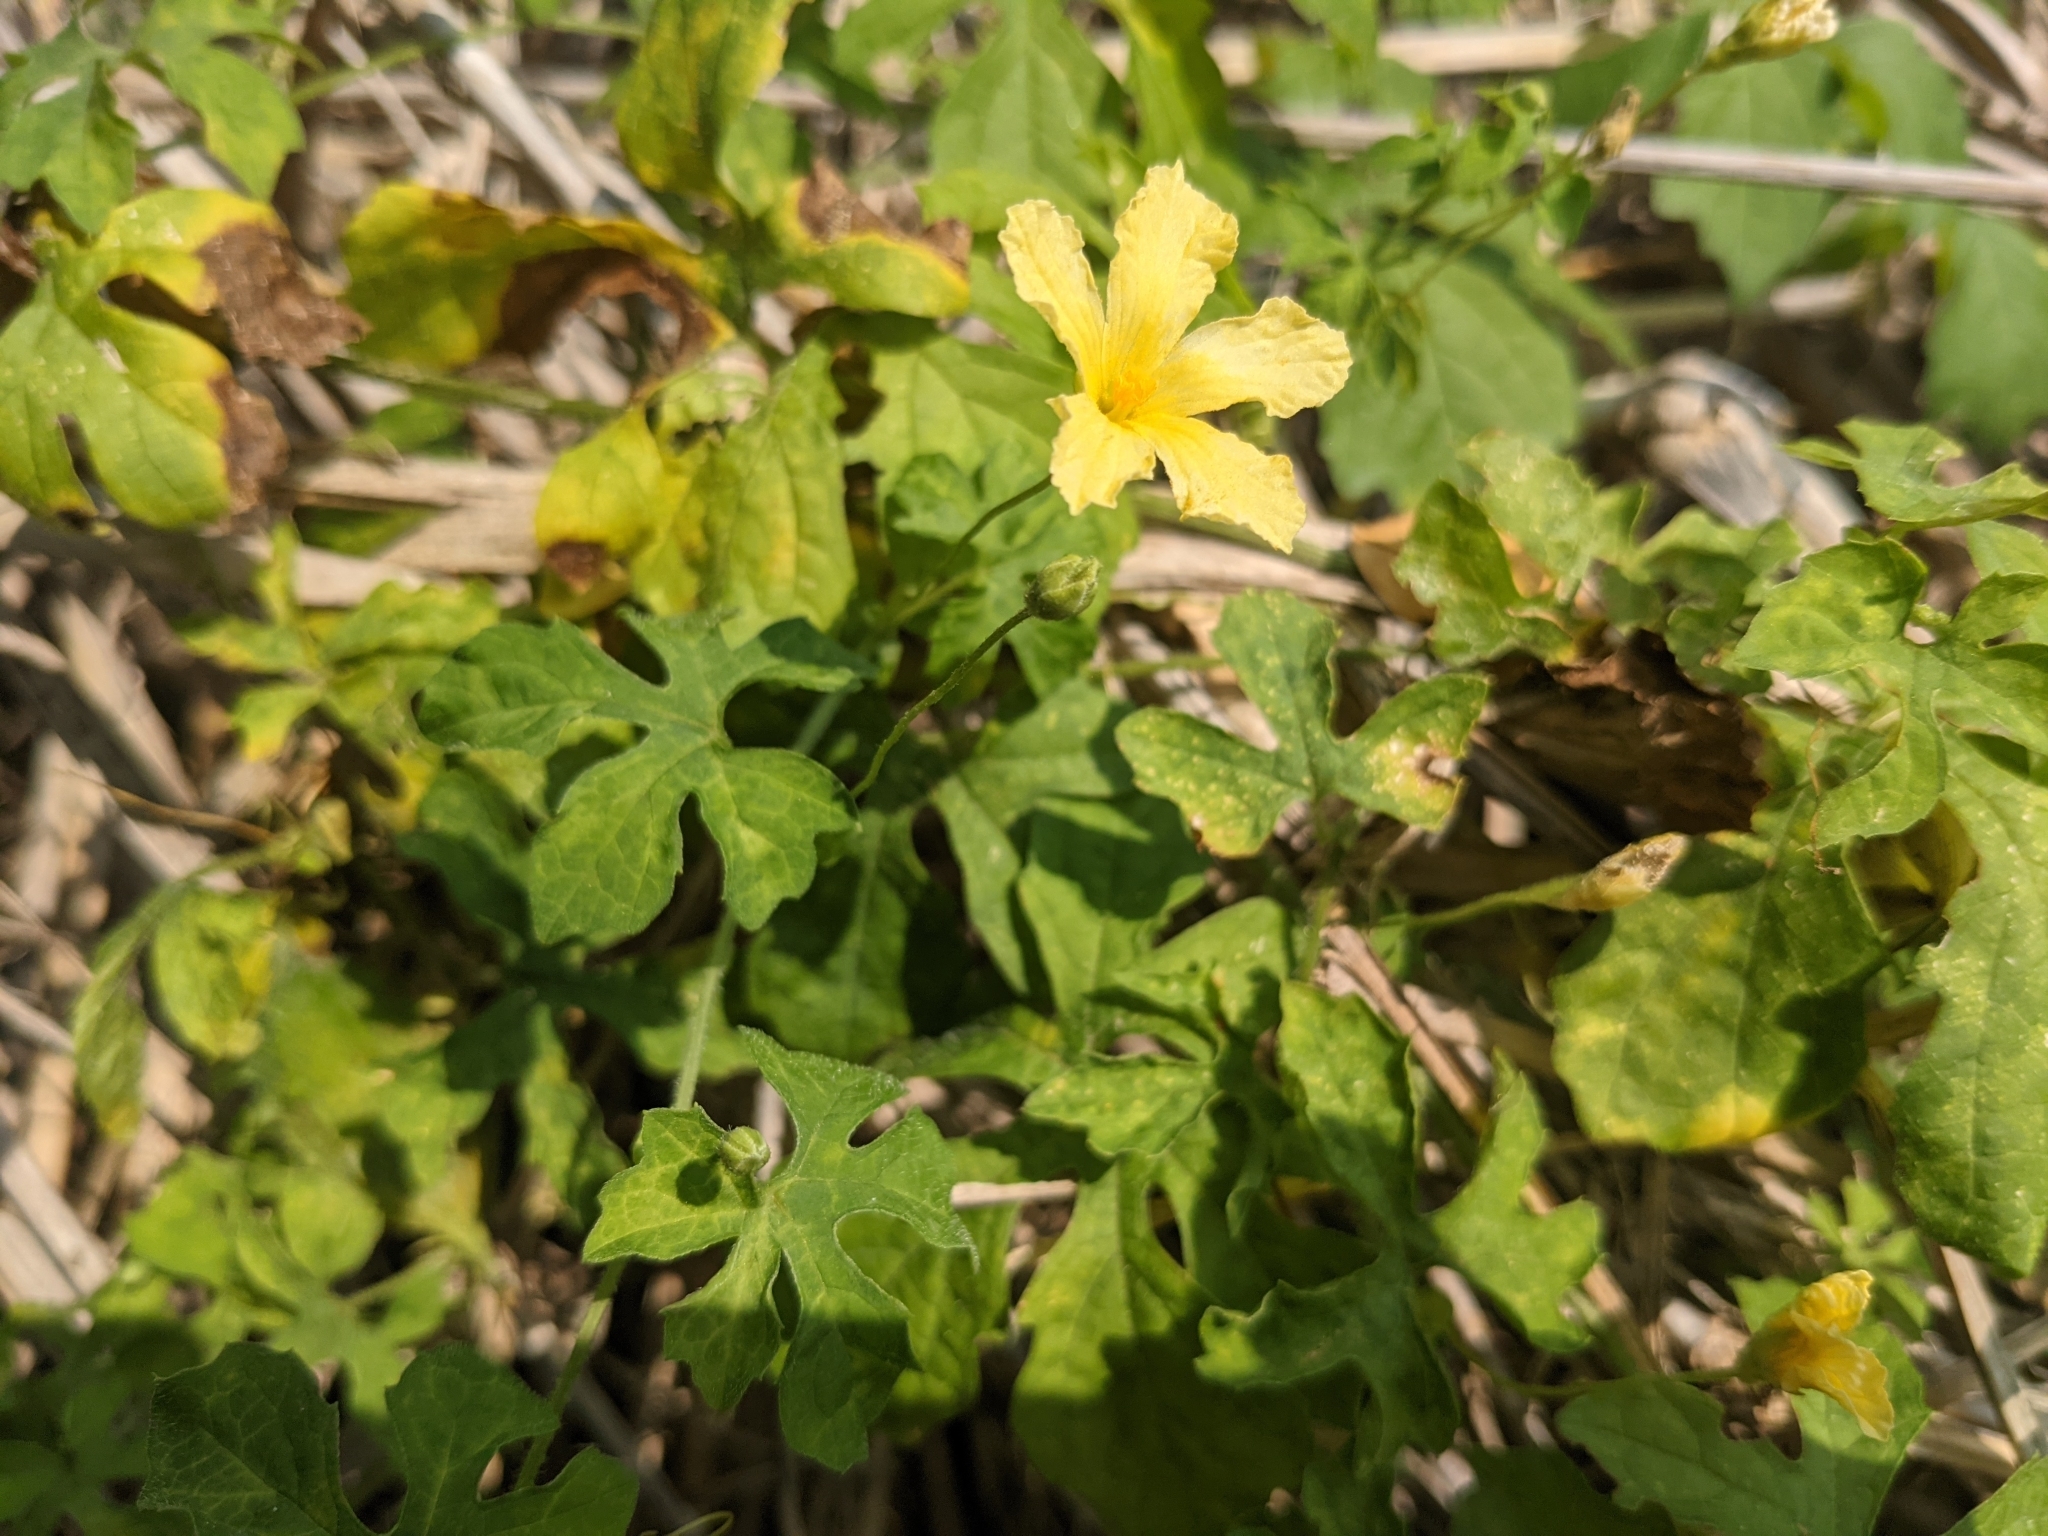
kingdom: Plantae
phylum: Tracheophyta
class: Magnoliopsida
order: Cucurbitales
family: Cucurbitaceae
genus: Momordica
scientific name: Momordica charantia
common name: Balsampear
